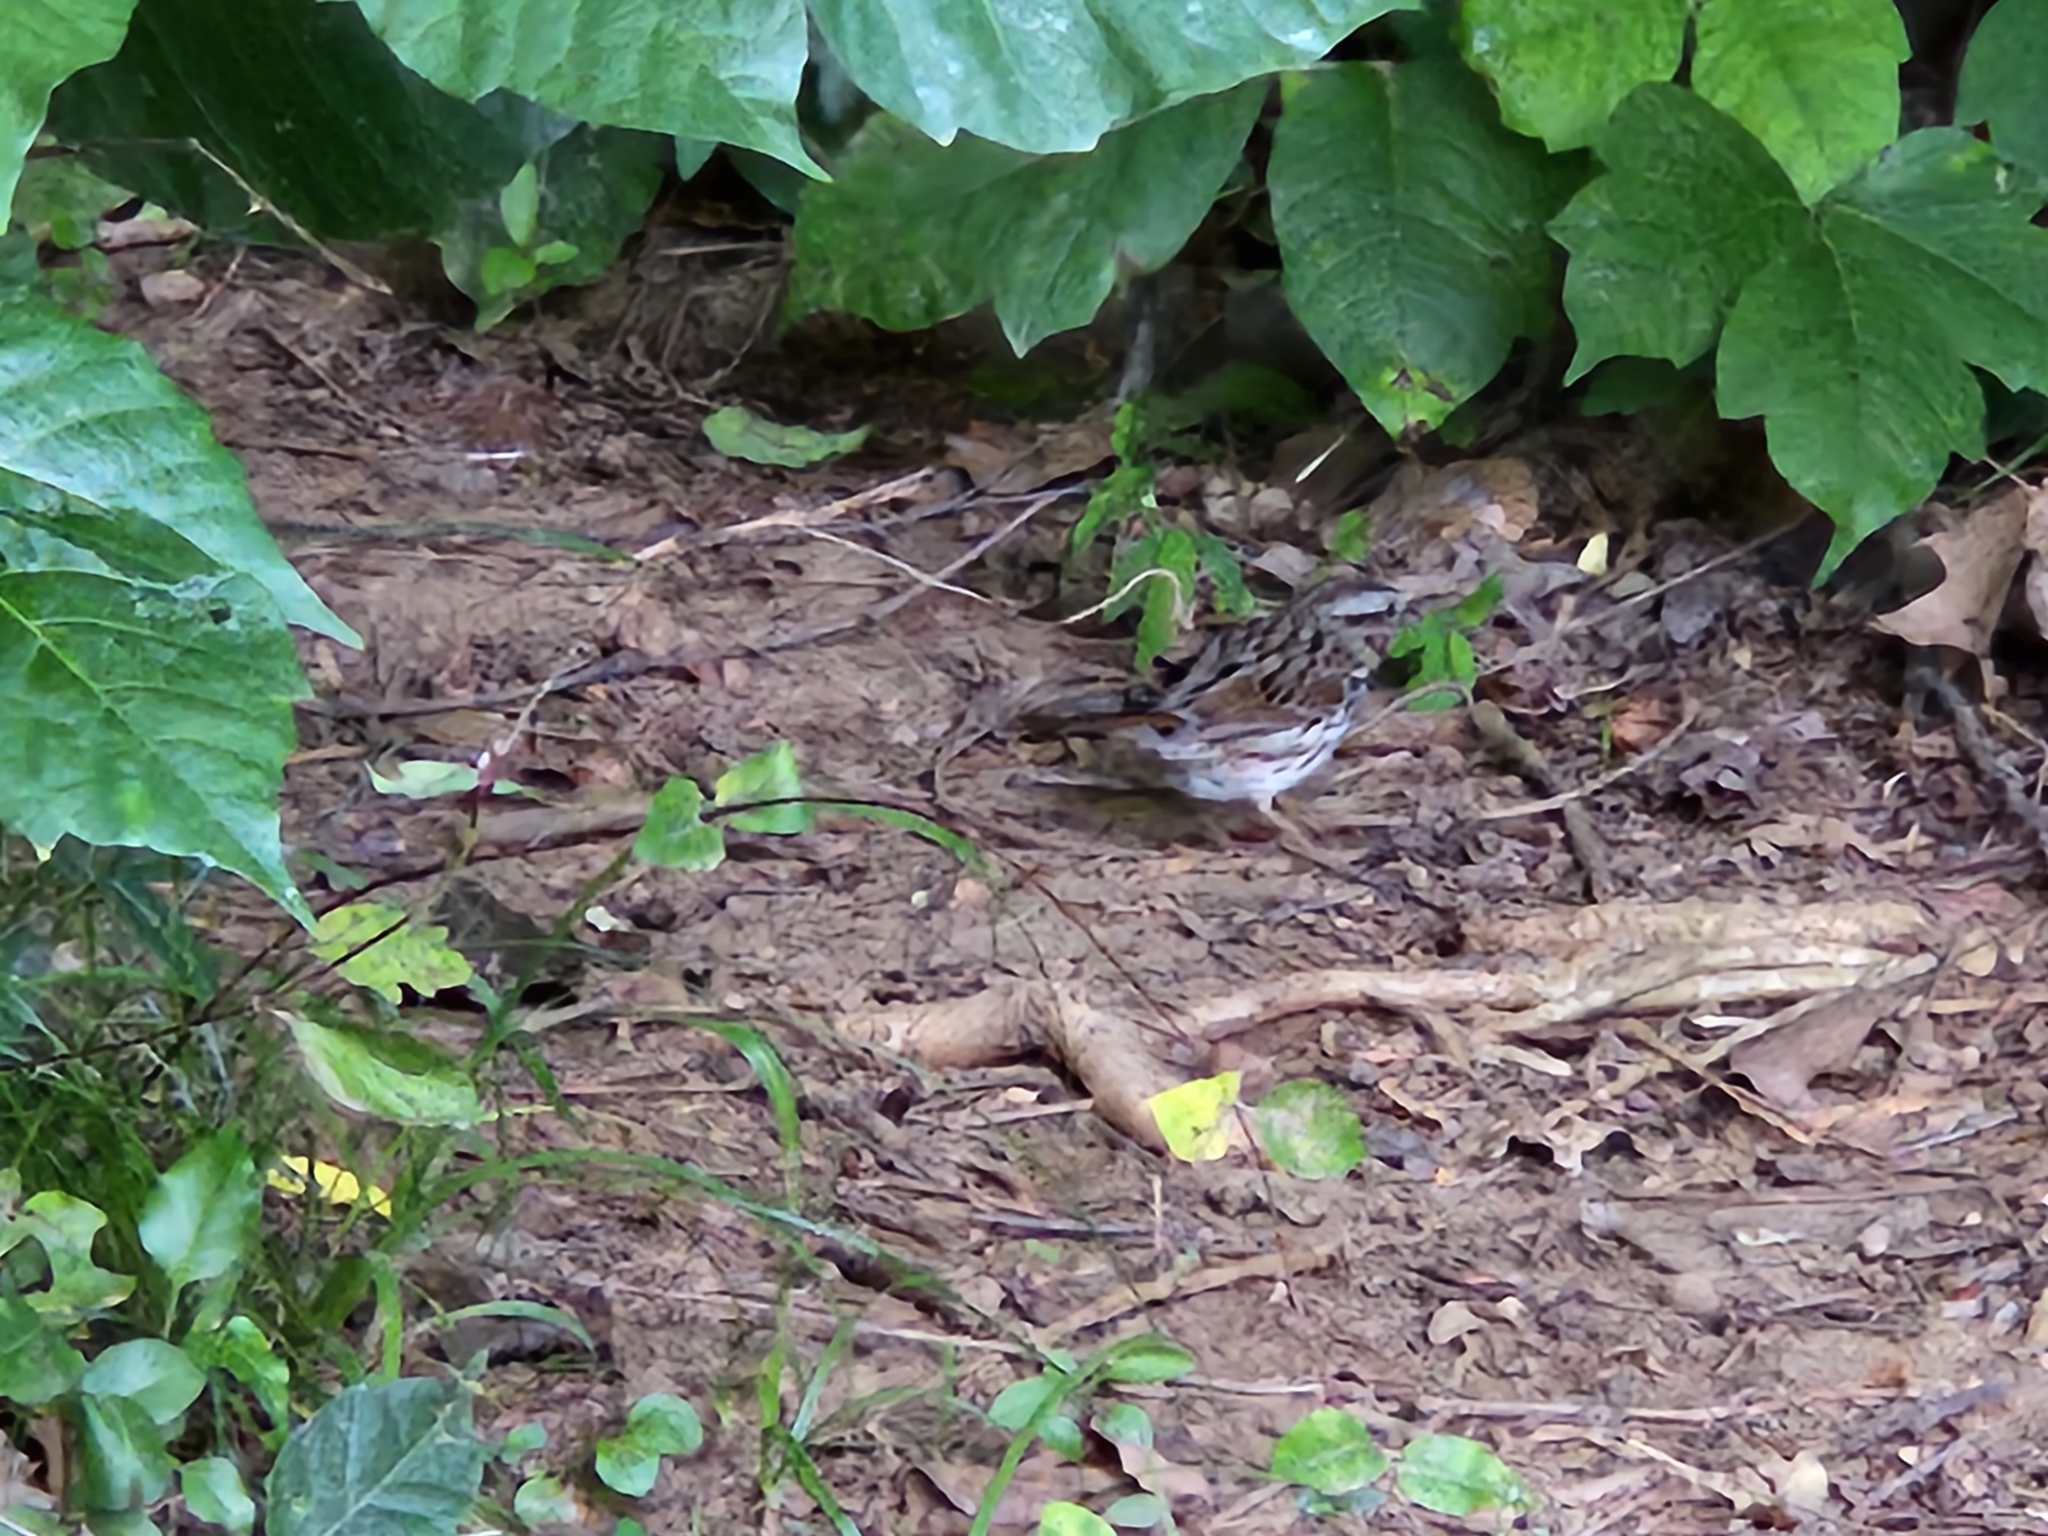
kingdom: Animalia
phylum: Chordata
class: Aves
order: Passeriformes
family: Passerellidae
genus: Melospiza
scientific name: Melospiza melodia
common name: Song sparrow
